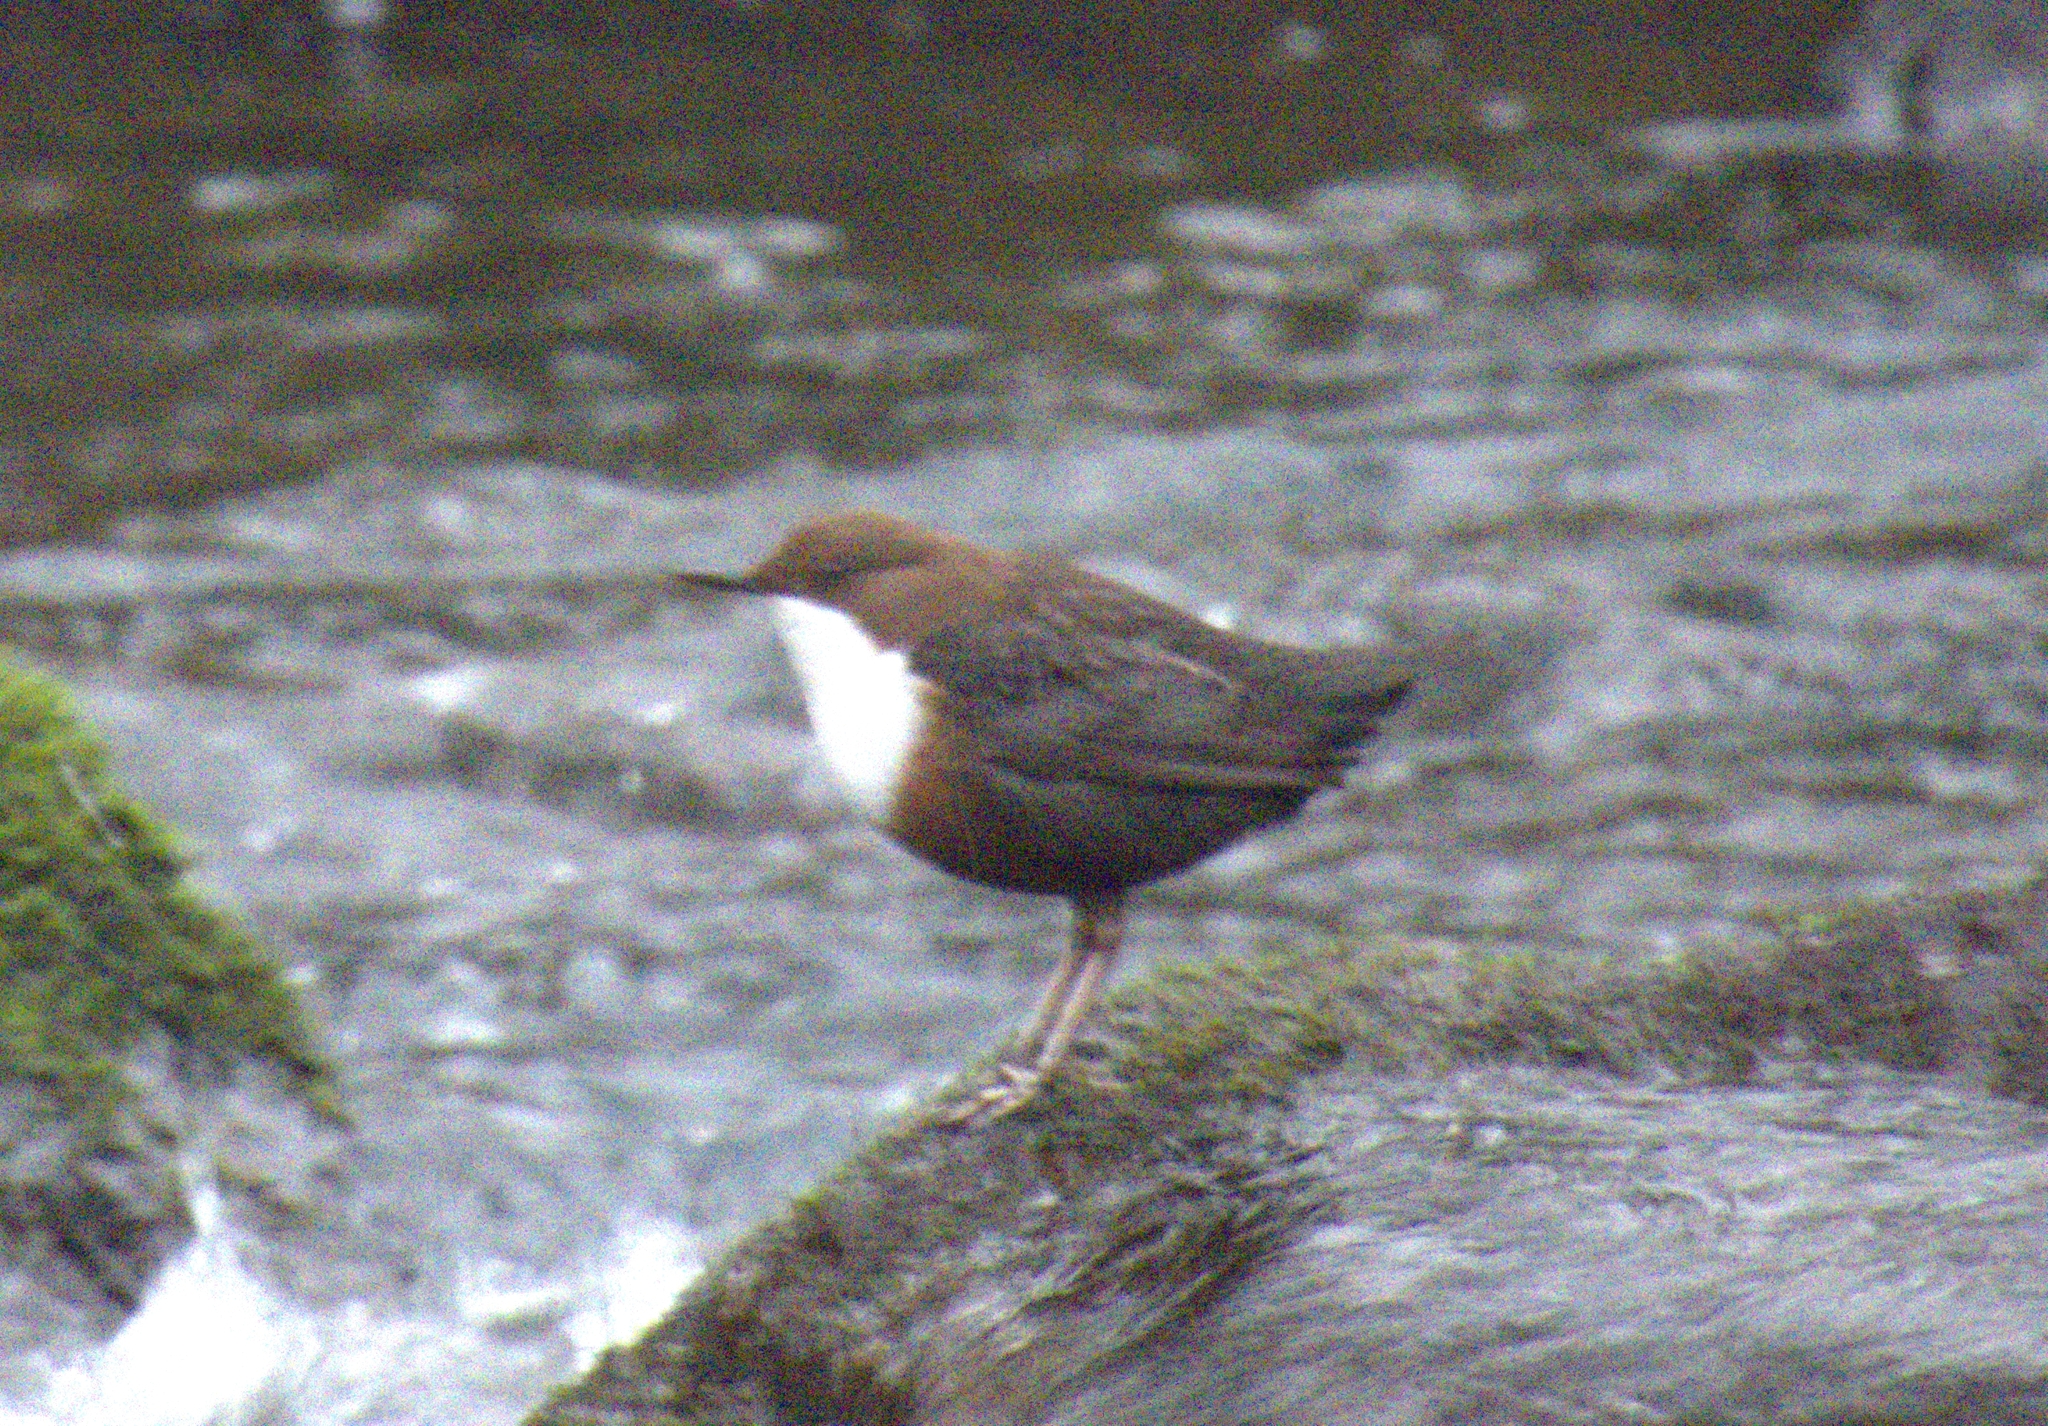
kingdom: Animalia
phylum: Chordata
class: Aves
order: Passeriformes
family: Cinclidae
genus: Cinclus
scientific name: Cinclus cinclus
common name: White-throated dipper
